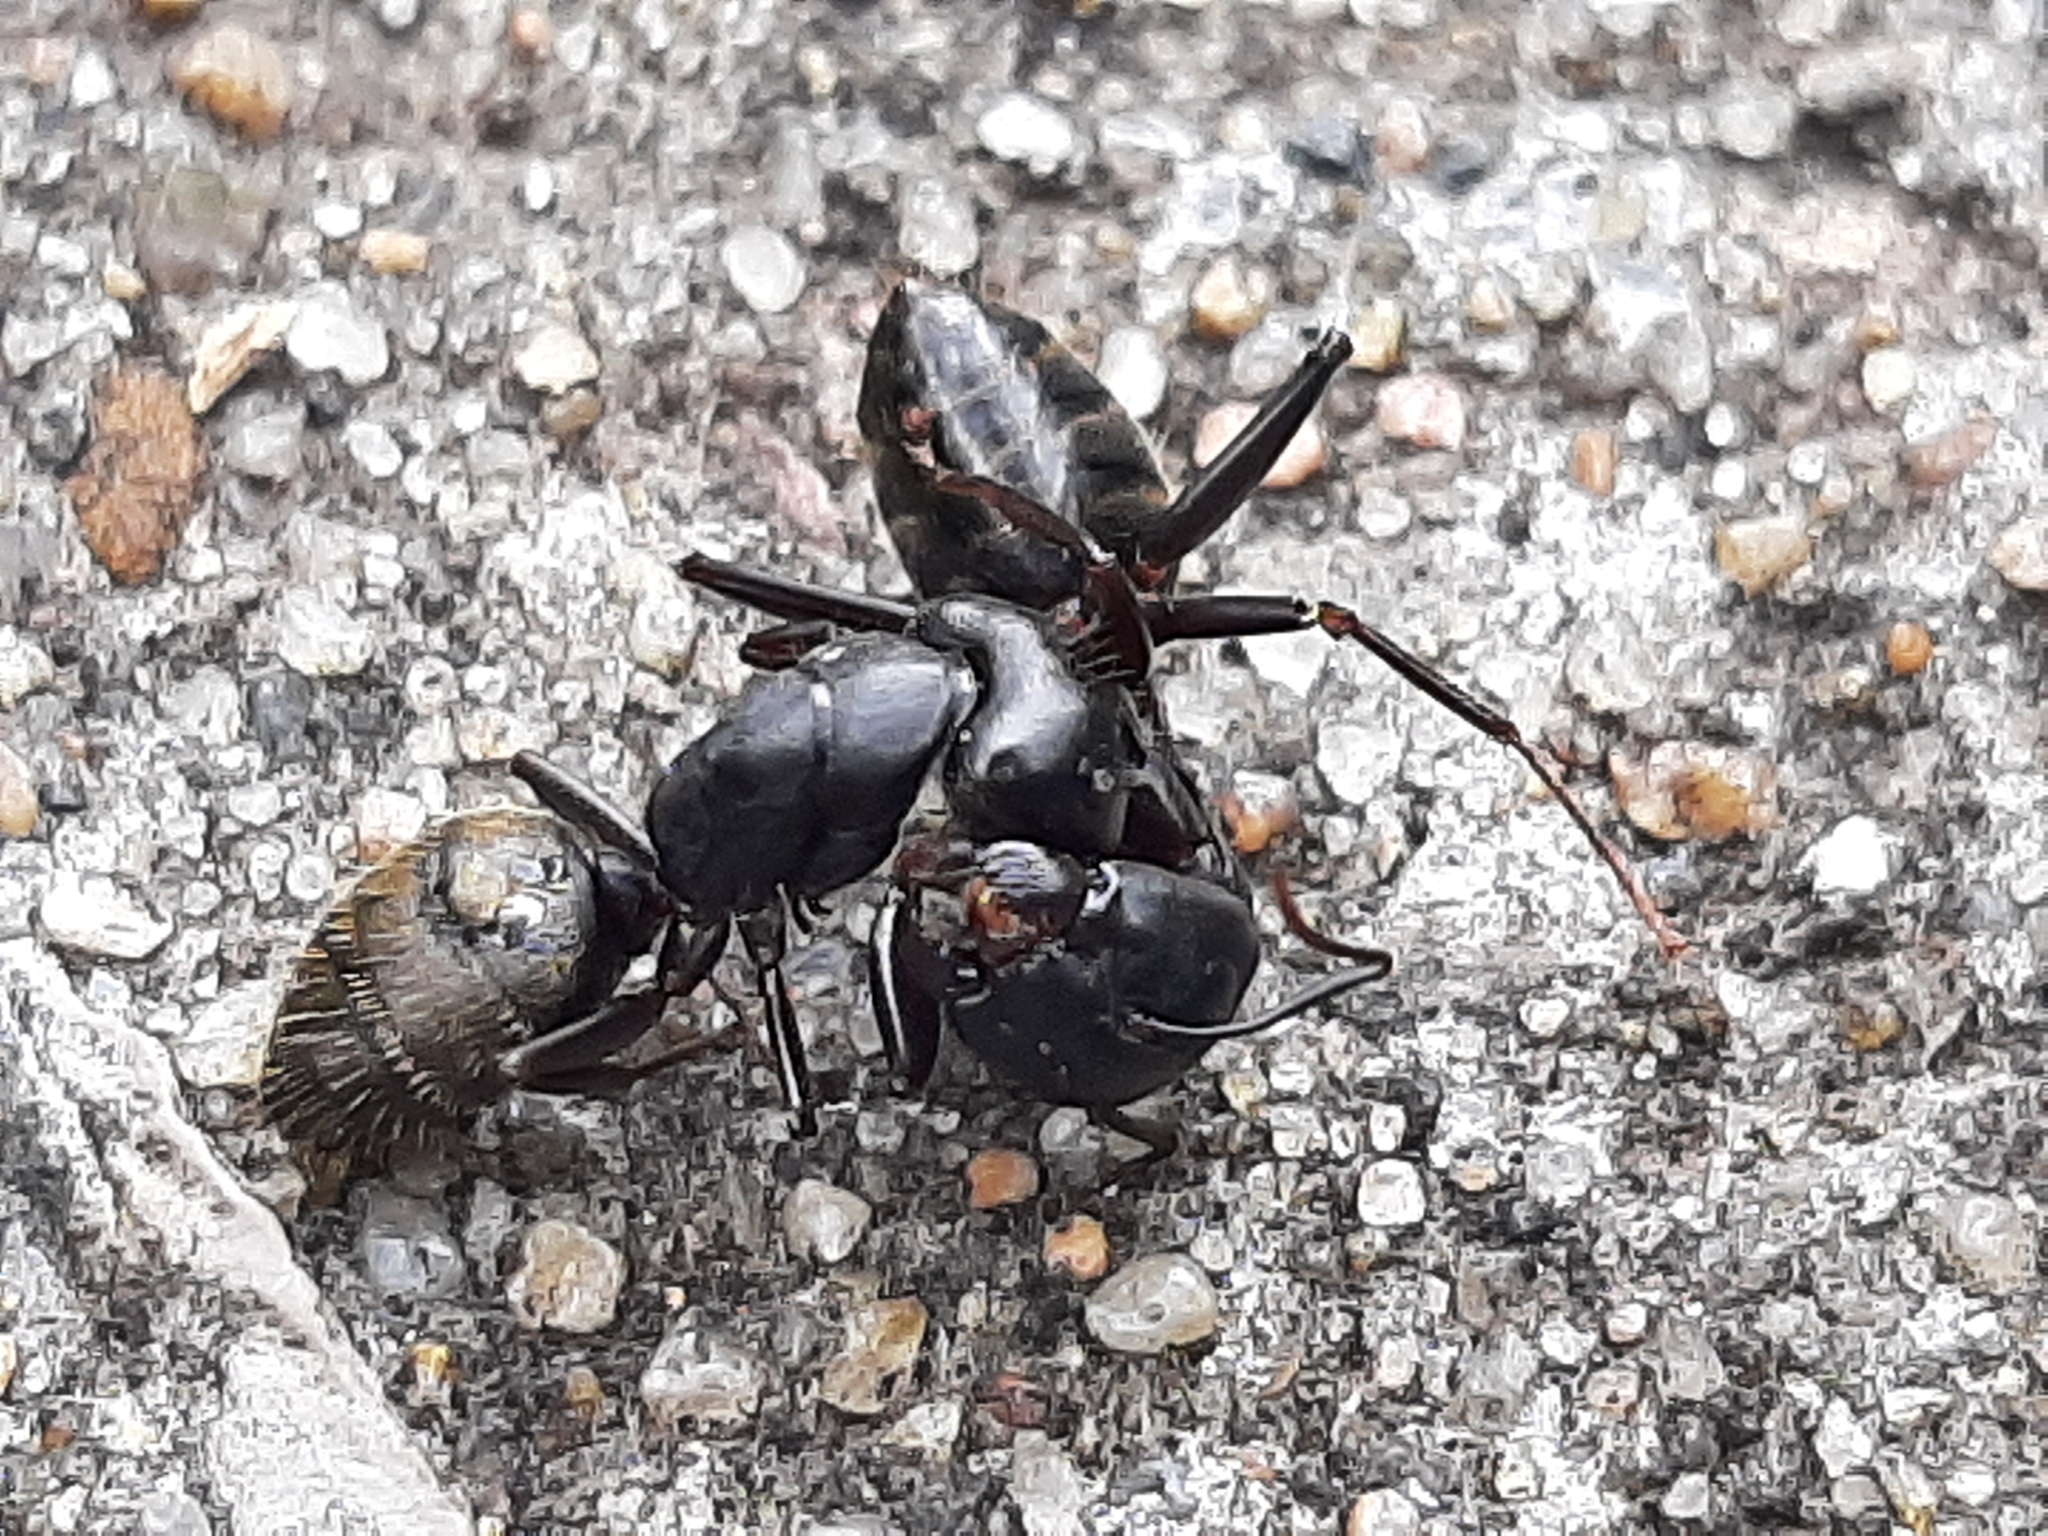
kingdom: Animalia
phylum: Arthropoda
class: Insecta
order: Hymenoptera
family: Formicidae
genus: Camponotus
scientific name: Camponotus pennsylvanicus
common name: Black carpenter ant
